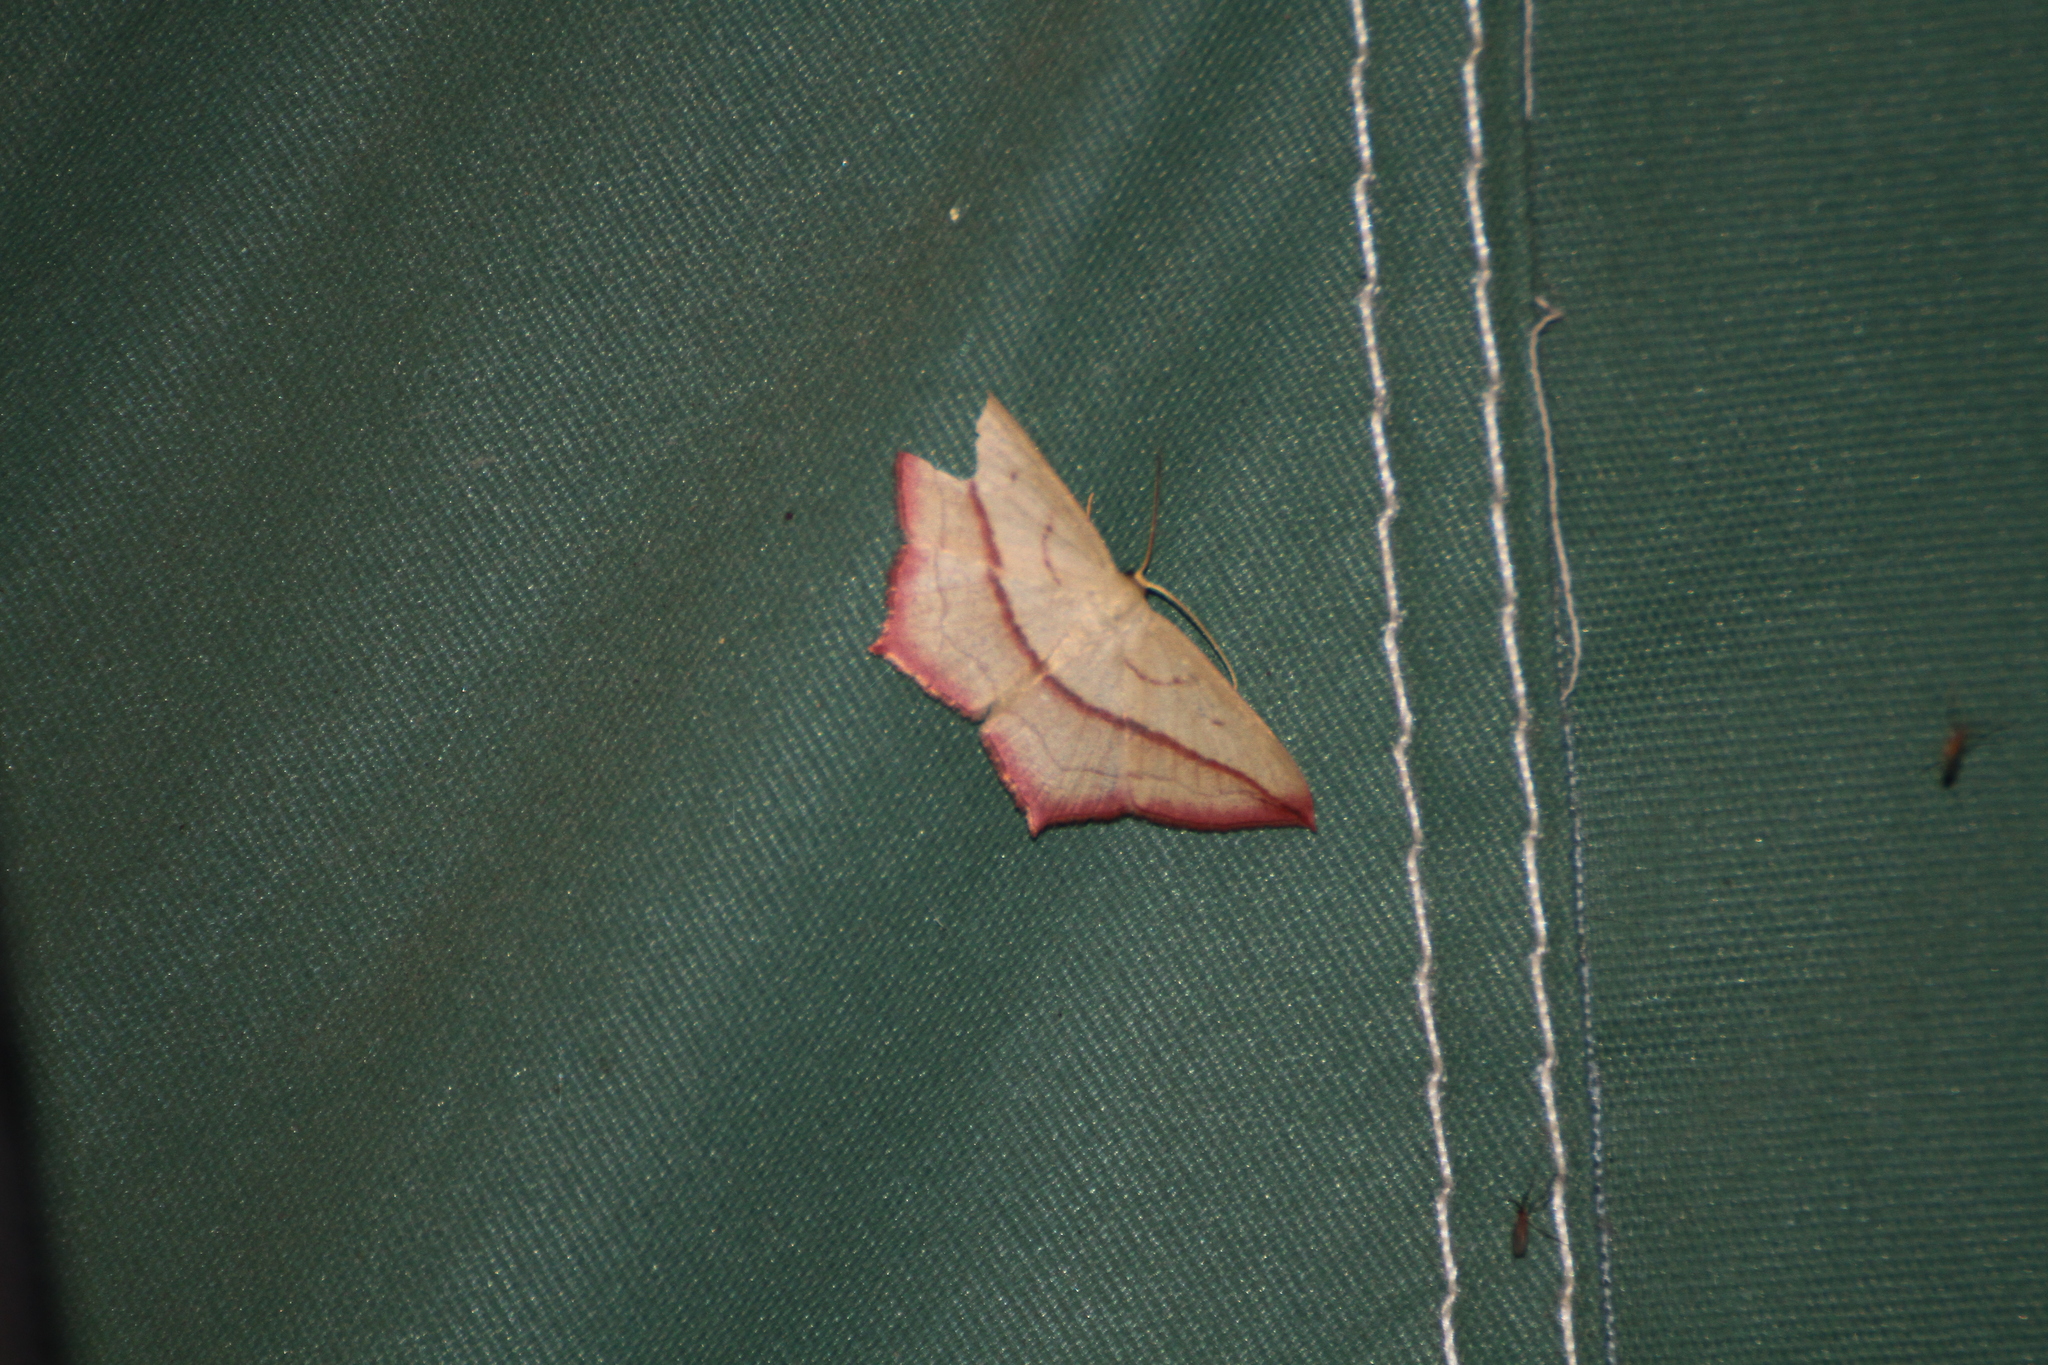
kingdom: Animalia
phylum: Arthropoda
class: Insecta
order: Lepidoptera
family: Geometridae
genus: Timandra
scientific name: Timandra comae
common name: Blood-vein
